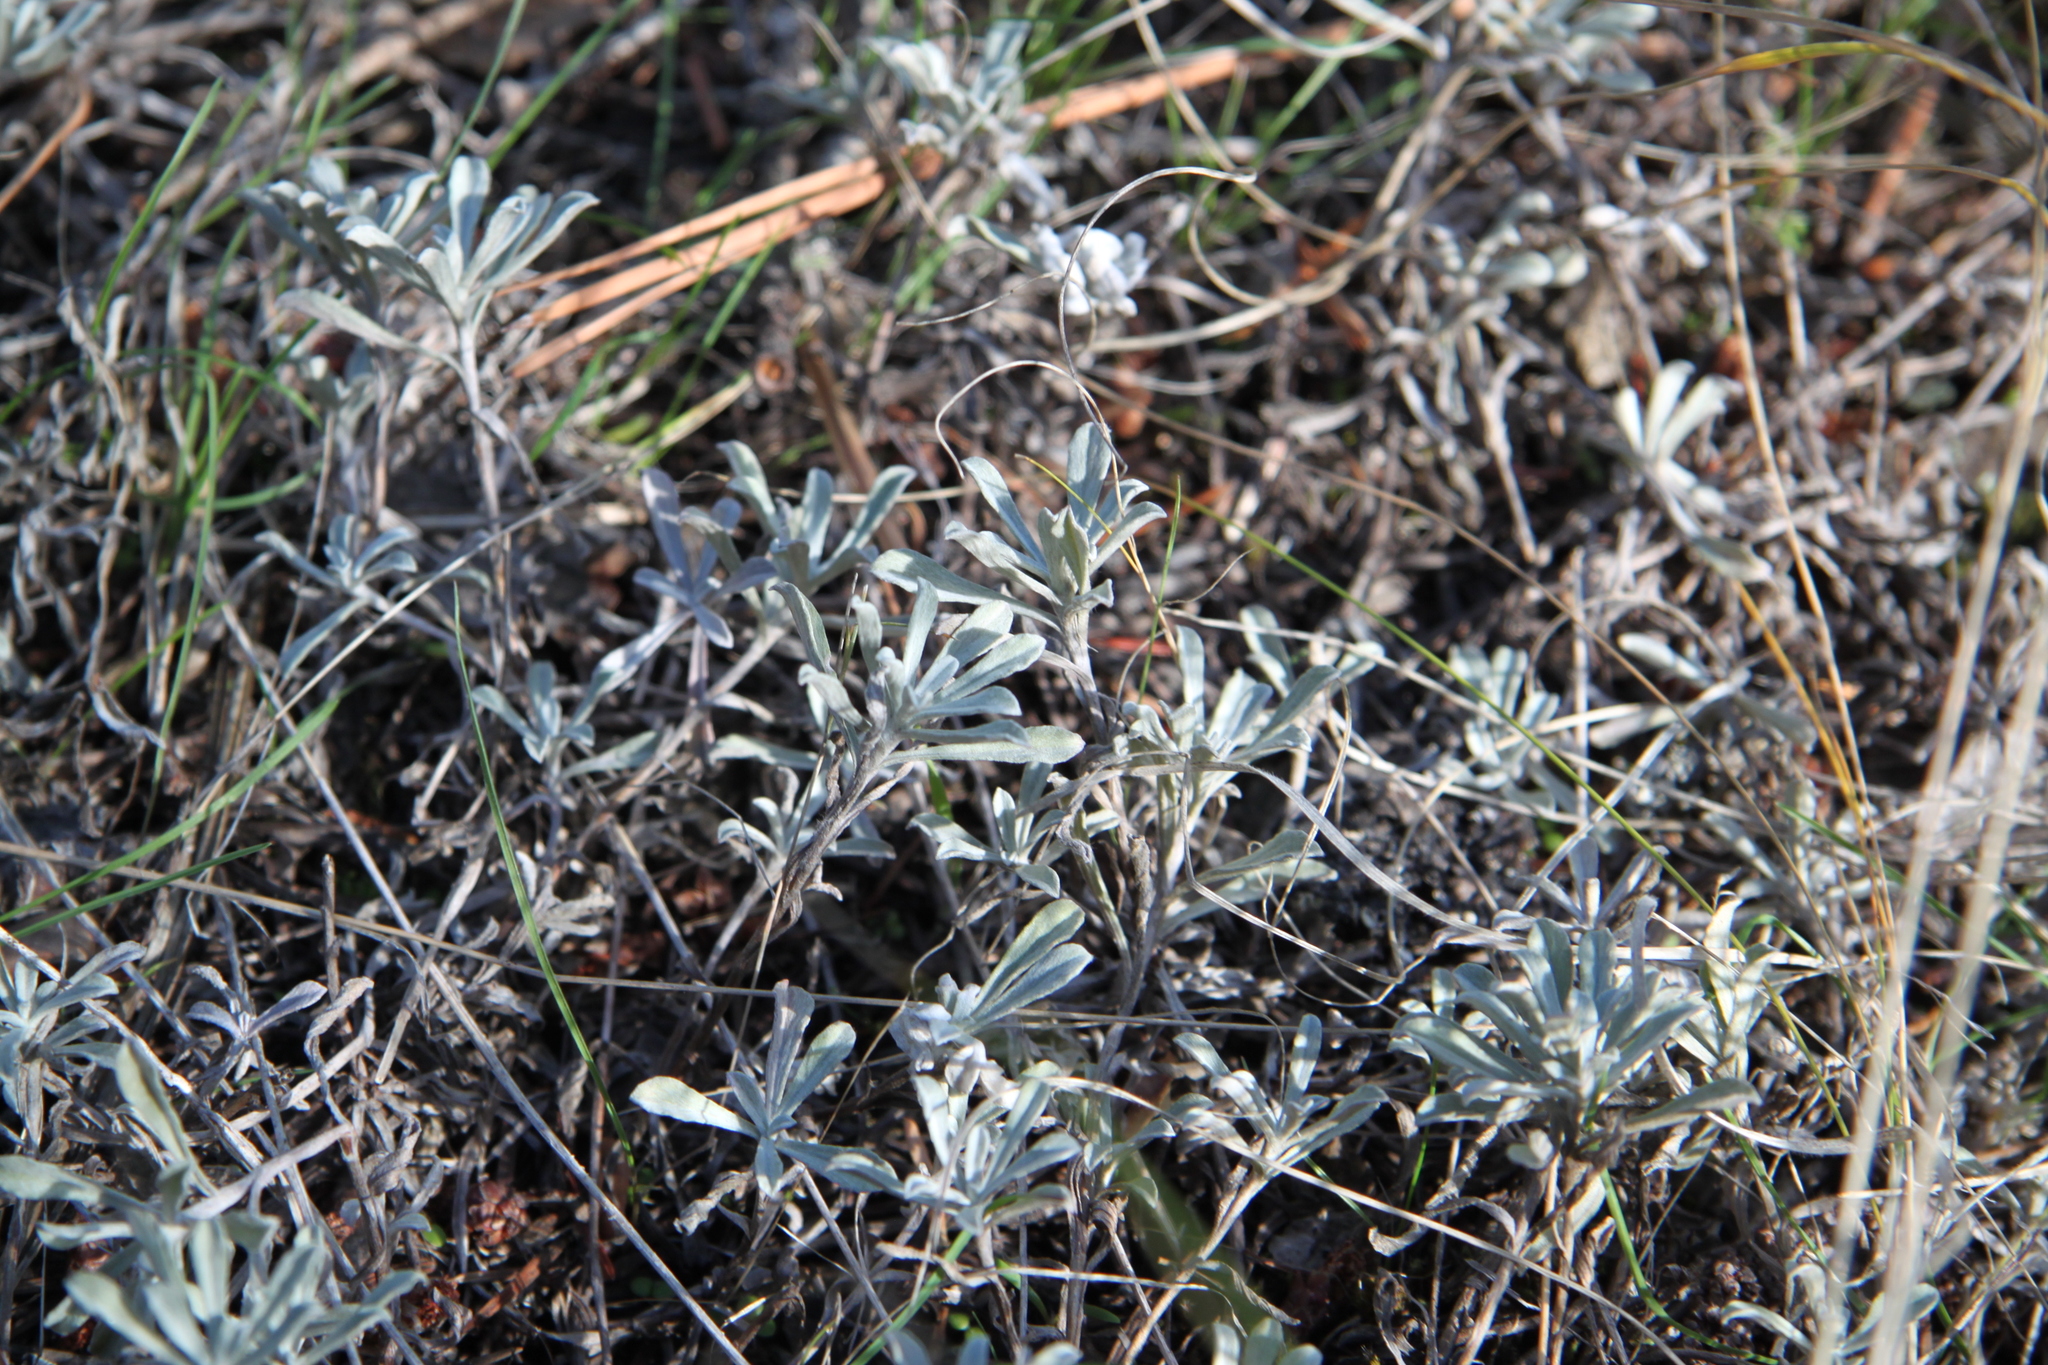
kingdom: Plantae
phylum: Tracheophyta
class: Magnoliopsida
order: Asterales
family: Asteraceae
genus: Antennaria
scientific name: Antennaria umbrinella
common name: Brown pussytoes
